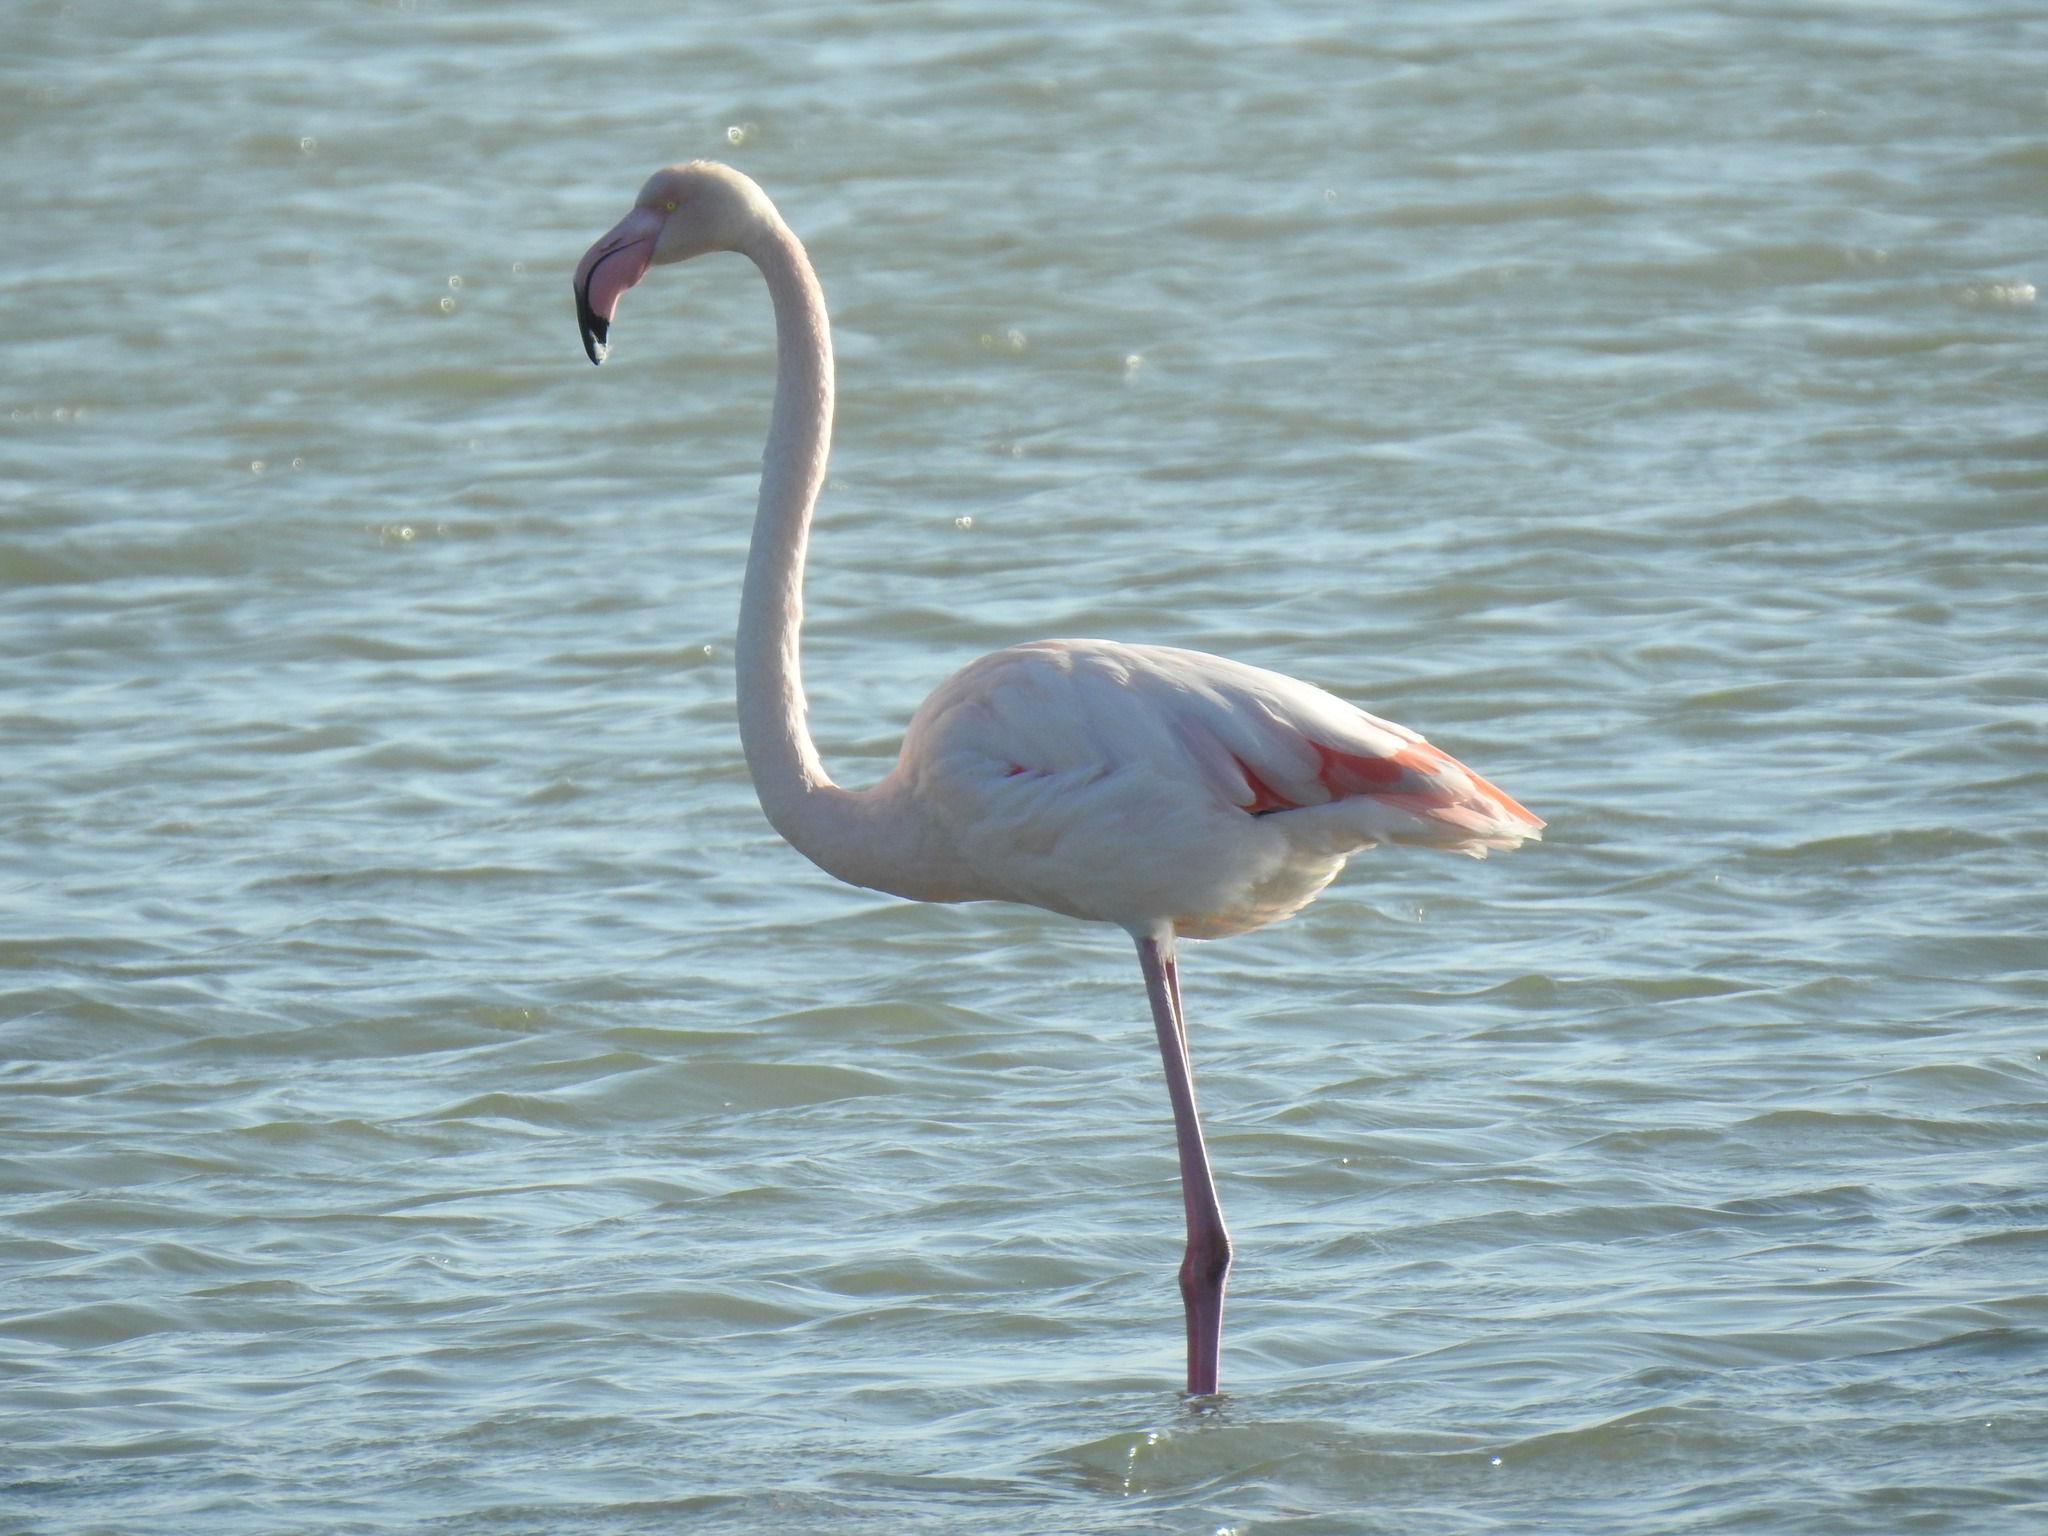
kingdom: Animalia
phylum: Chordata
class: Aves
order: Phoenicopteriformes
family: Phoenicopteridae
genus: Phoenicopterus
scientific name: Phoenicopterus roseus
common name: Greater flamingo
